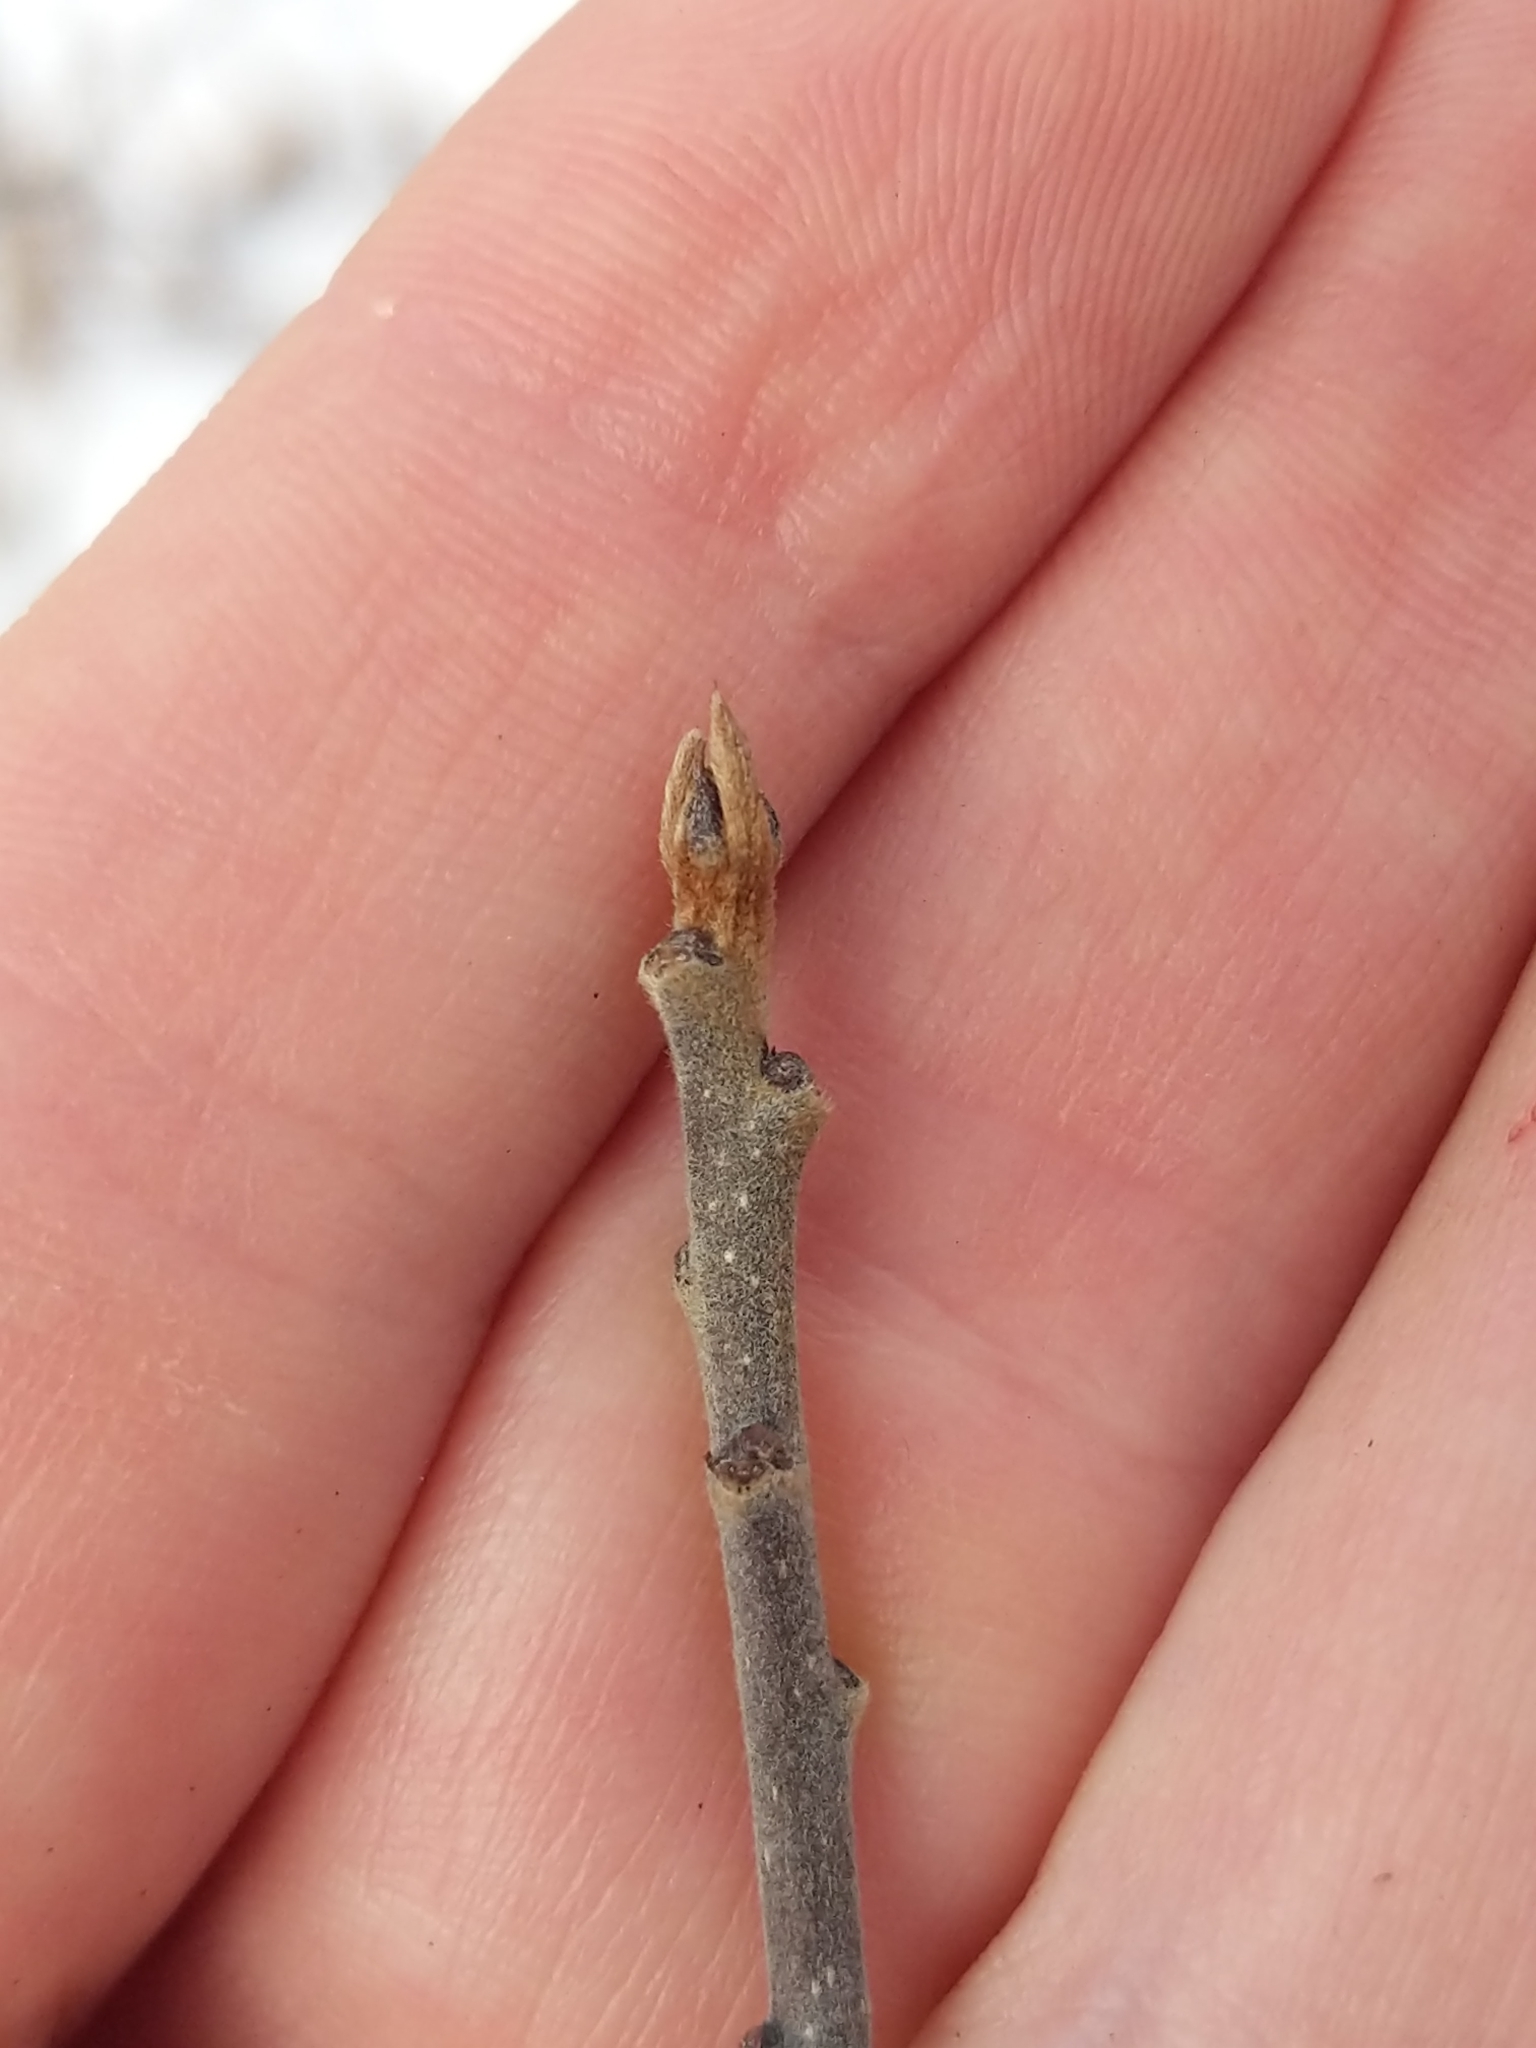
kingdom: Plantae
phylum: Tracheophyta
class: Magnoliopsida
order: Rosales
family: Rhamnaceae
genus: Frangula
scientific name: Frangula alnus
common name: Alder buckthorn
